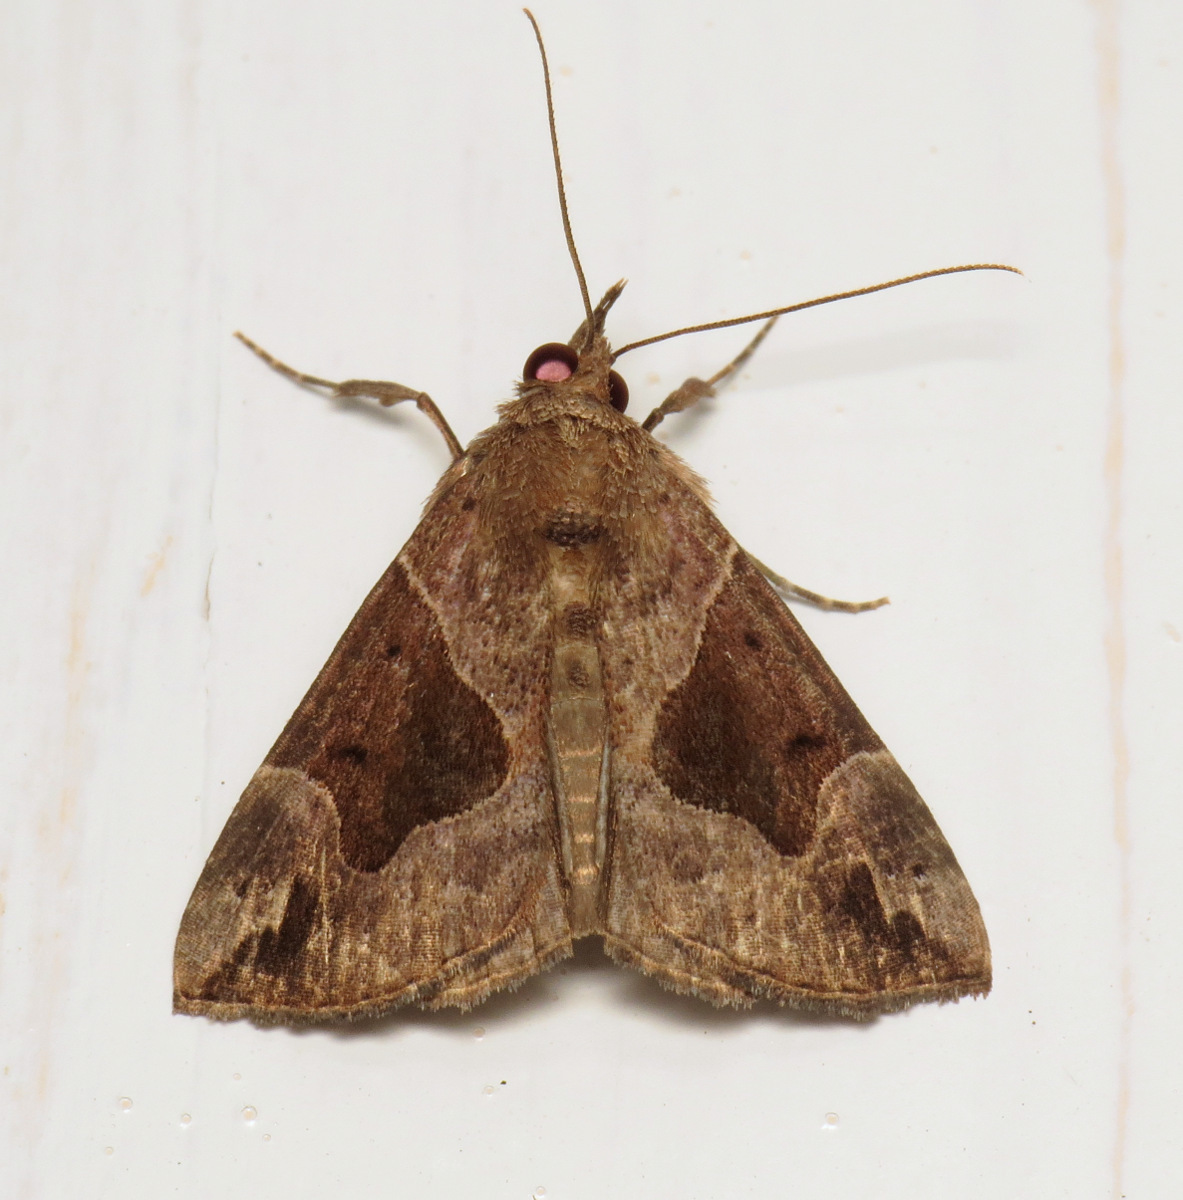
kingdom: Animalia
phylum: Arthropoda
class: Insecta
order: Lepidoptera
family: Erebidae
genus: Hypena
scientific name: Hypena manalis
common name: Flowing-line bomolocha moth
